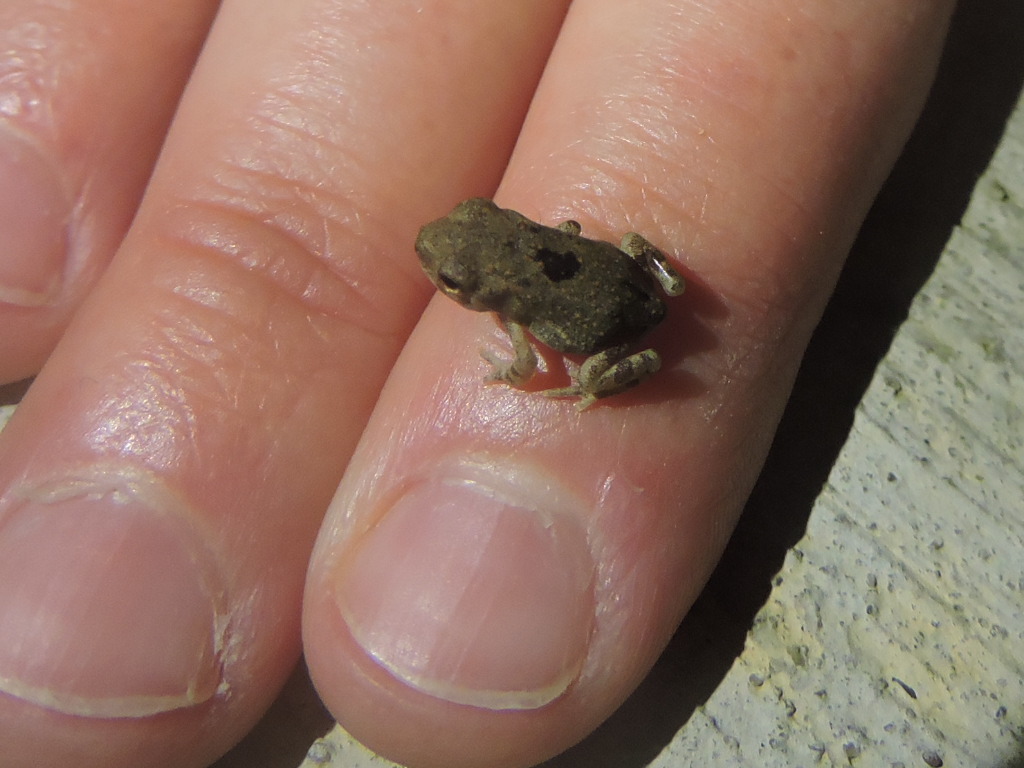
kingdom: Animalia
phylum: Chordata
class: Amphibia
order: Anura
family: Bufonidae
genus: Incilius
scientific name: Incilius nebulifer
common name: Gulf coast toad
